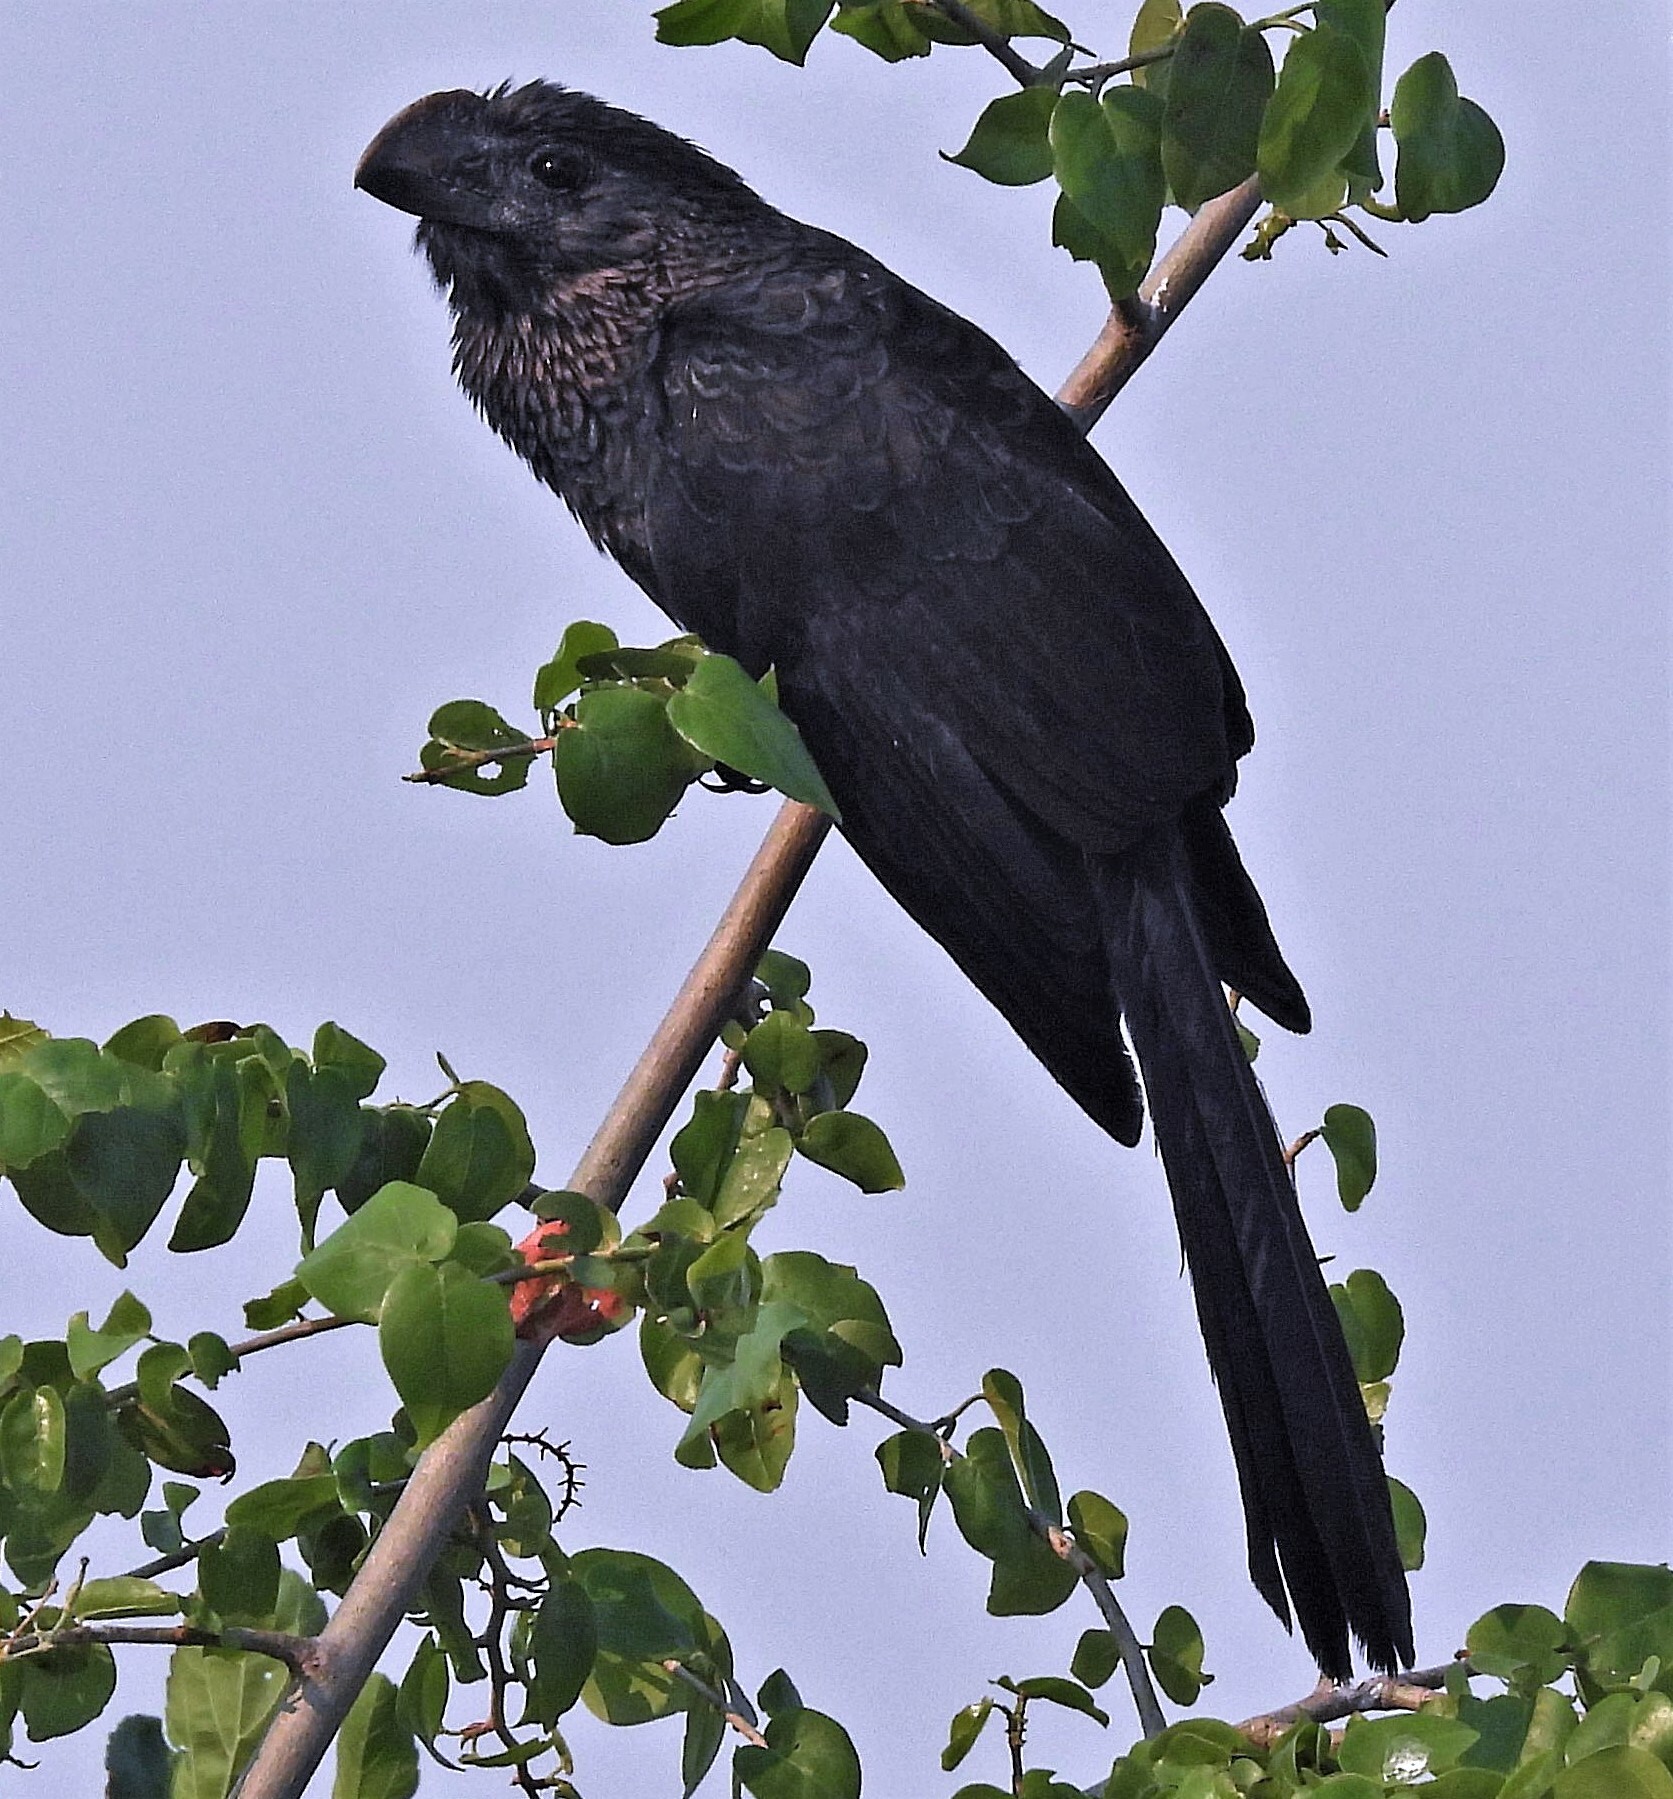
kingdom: Animalia
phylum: Chordata
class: Aves
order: Cuculiformes
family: Cuculidae
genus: Crotophaga
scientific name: Crotophaga ani
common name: Smooth-billed ani
